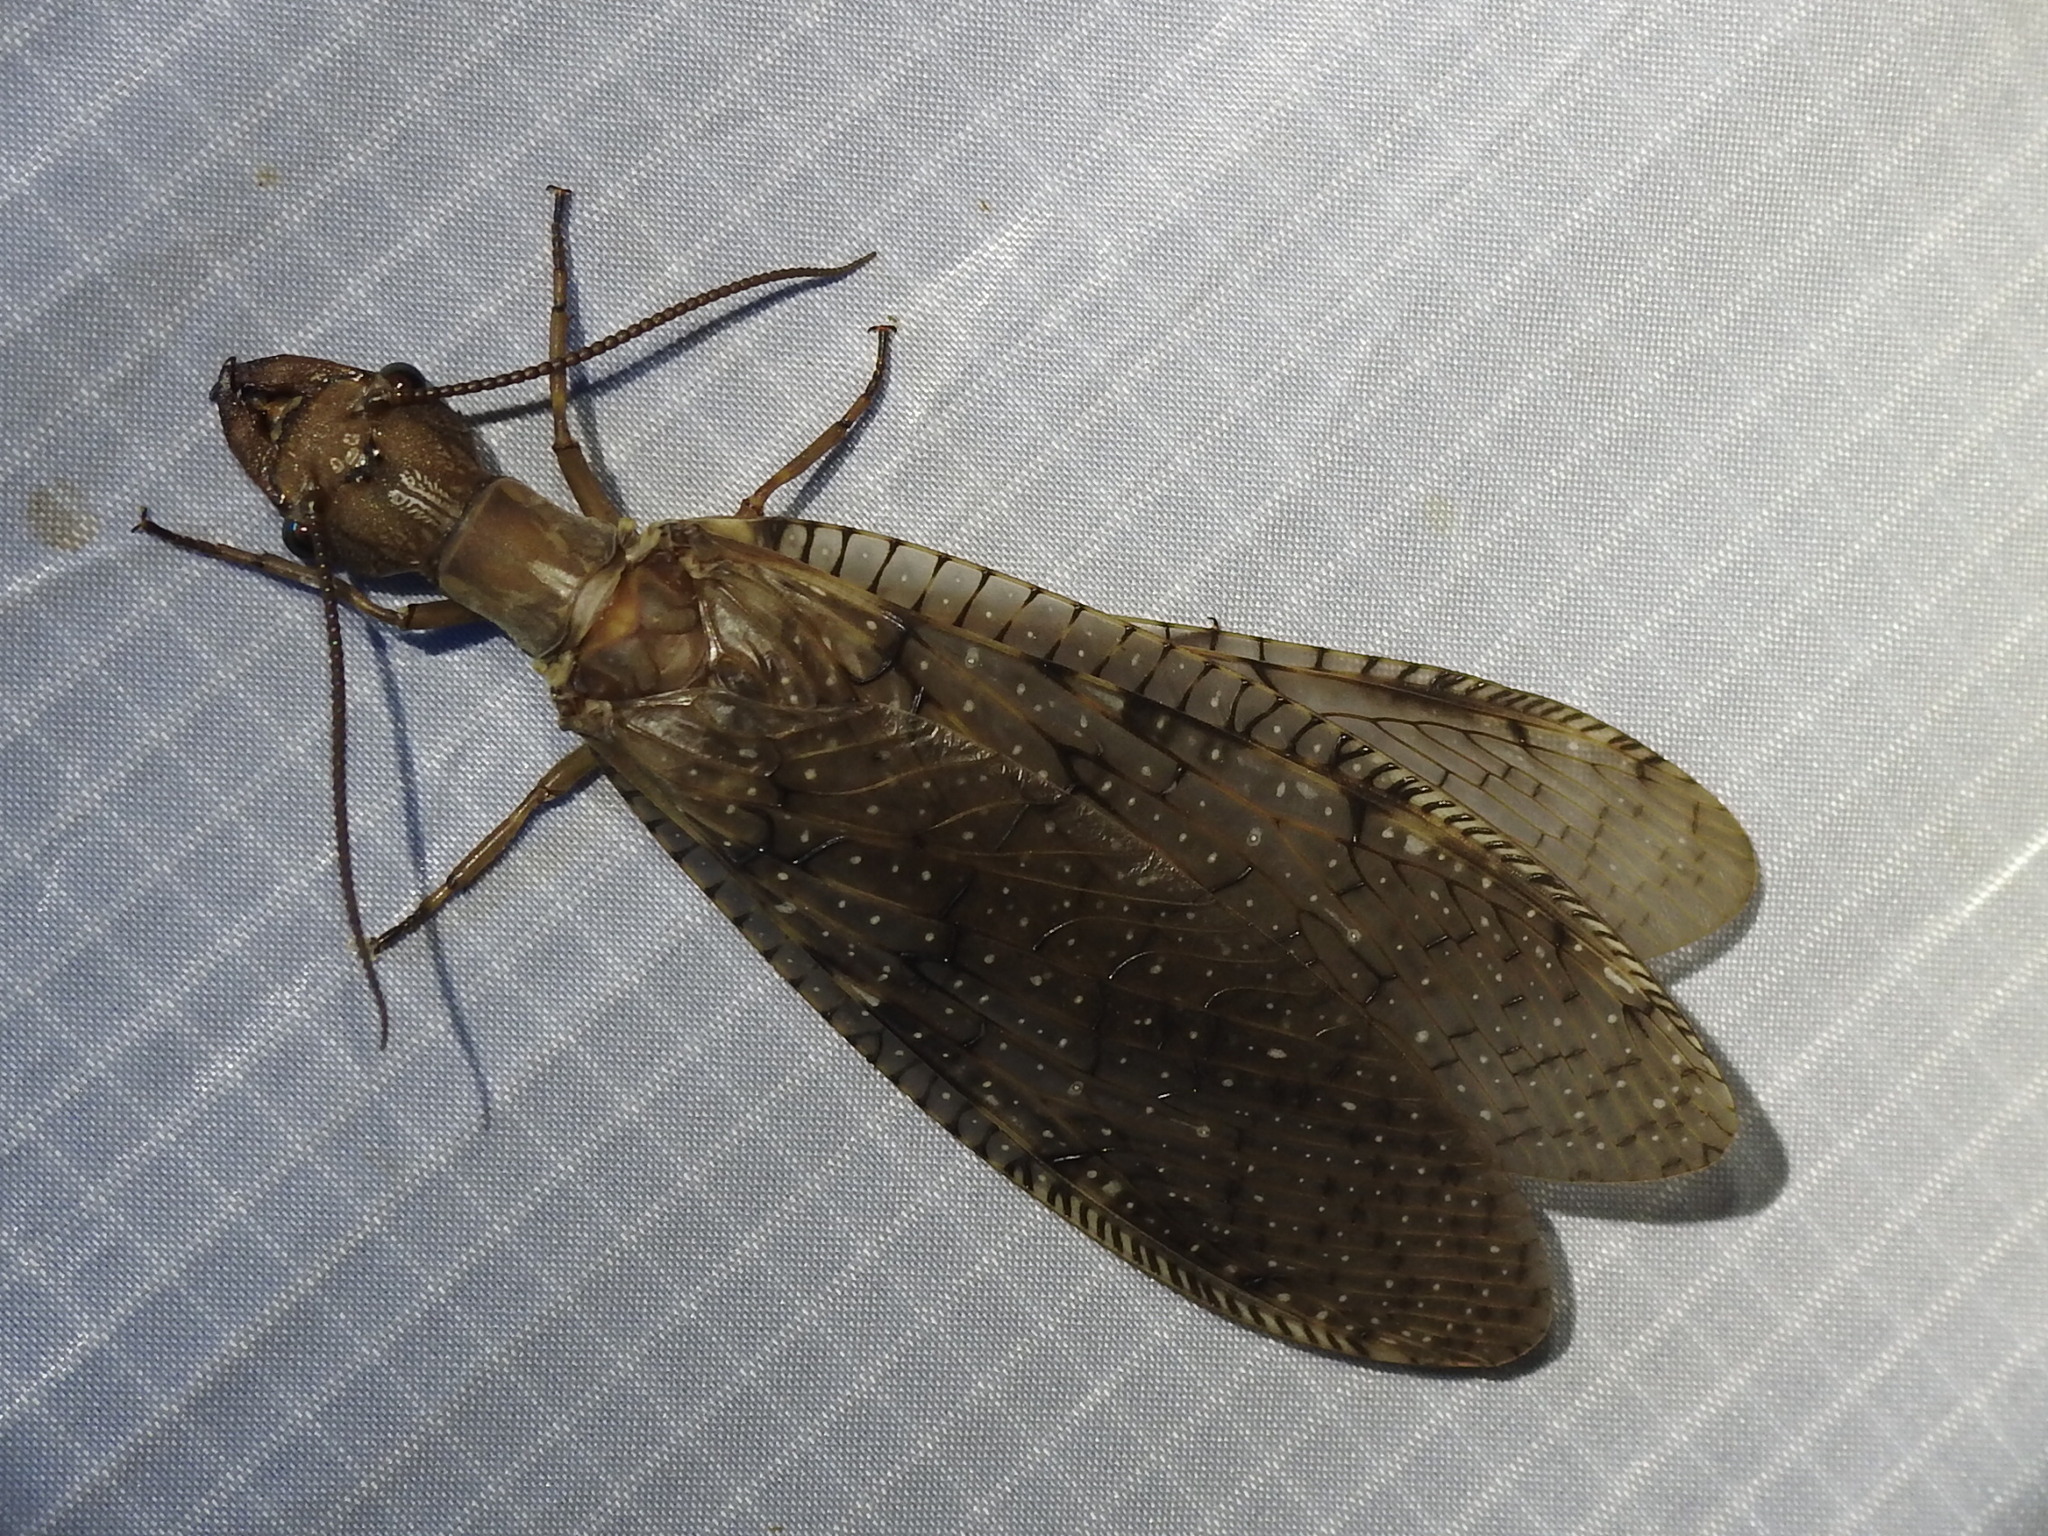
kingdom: Animalia
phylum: Arthropoda
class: Insecta
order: Megaloptera
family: Corydalidae
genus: Corydalus
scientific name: Corydalus cornutus
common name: Dobsonfly
